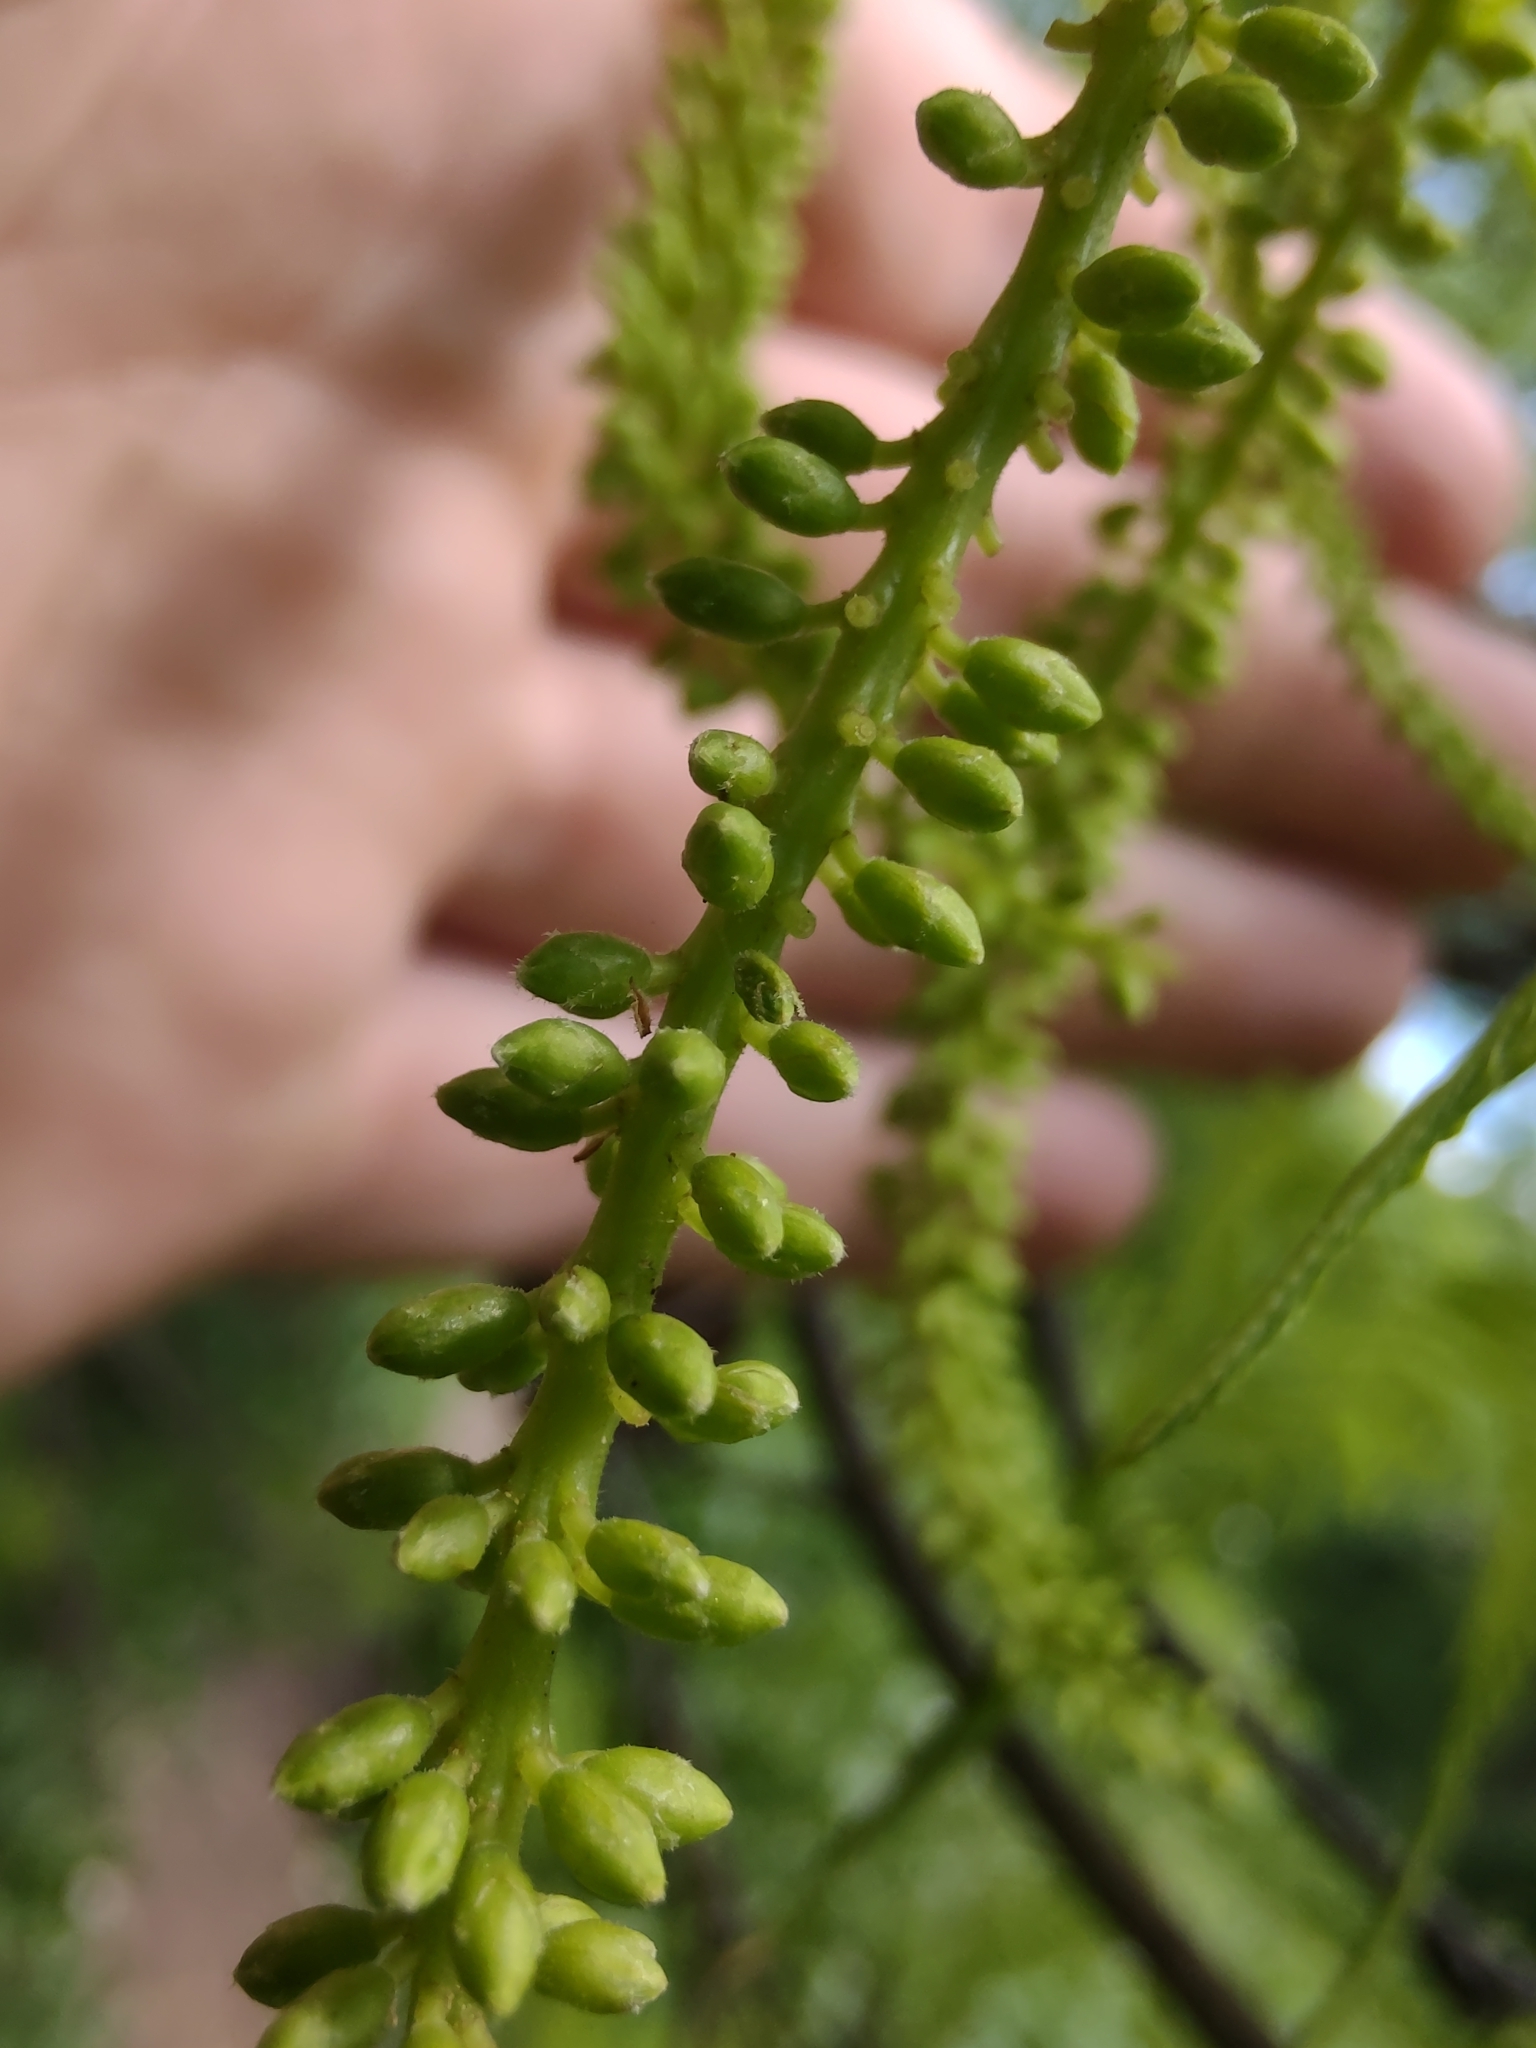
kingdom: Plantae
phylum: Tracheophyta
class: Magnoliopsida
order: Fabales
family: Fabaceae
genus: Prosopis
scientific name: Prosopis alba
